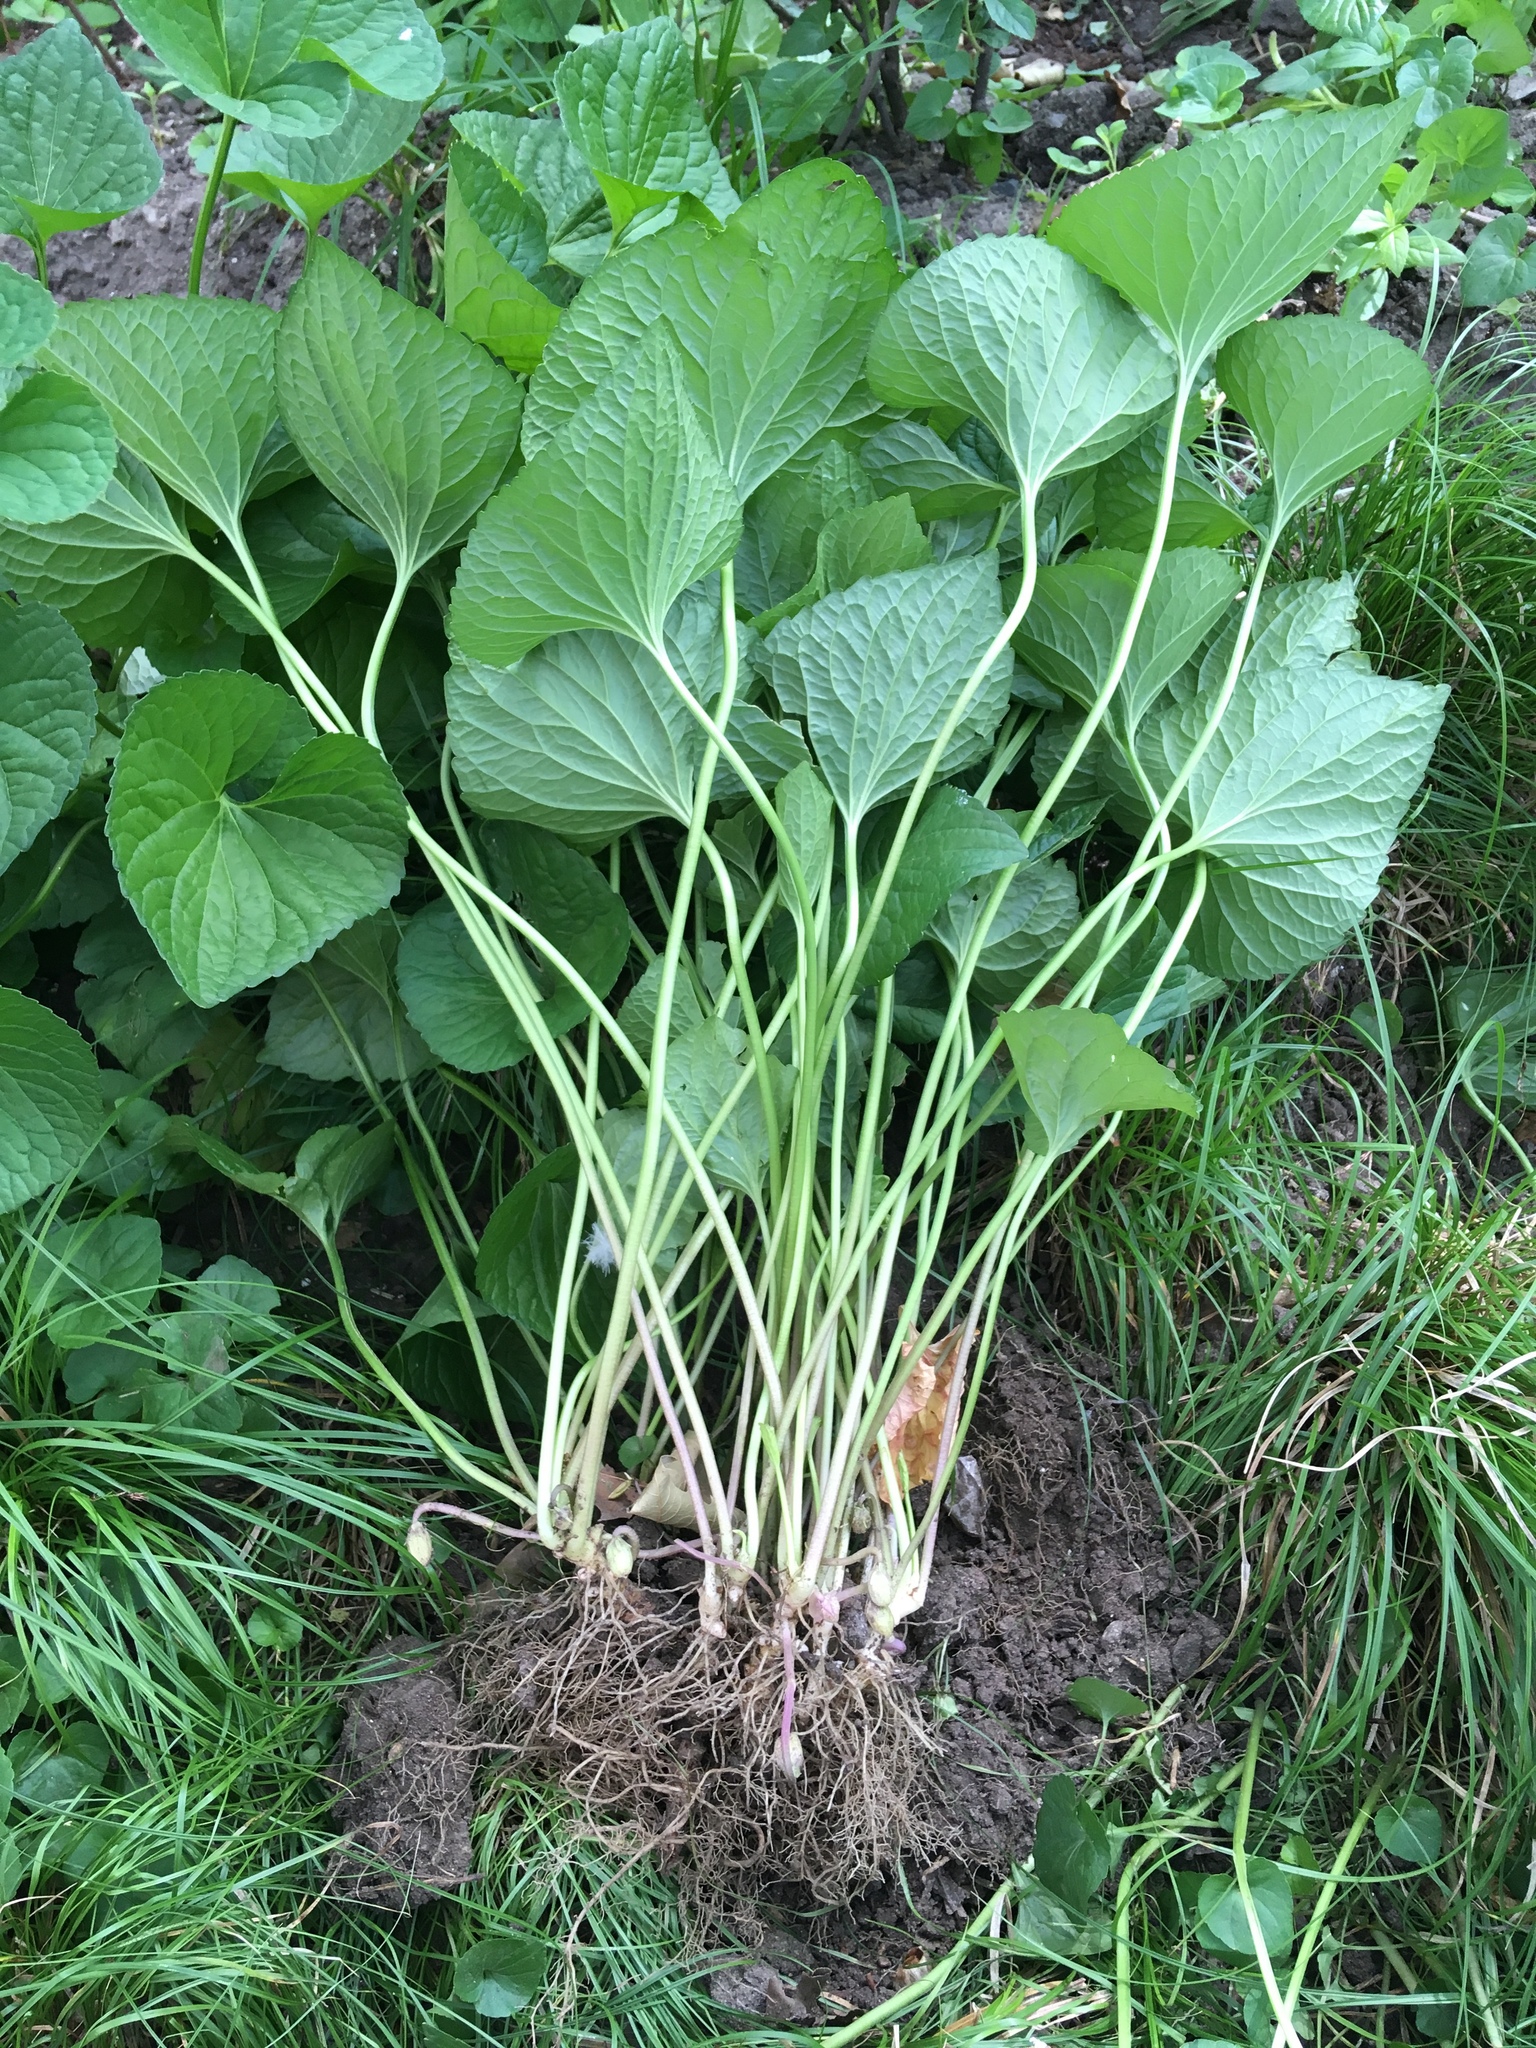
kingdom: Plantae
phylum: Tracheophyta
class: Magnoliopsida
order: Malpighiales
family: Violaceae
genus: Viola
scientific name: Viola sororia
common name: Dooryard violet
